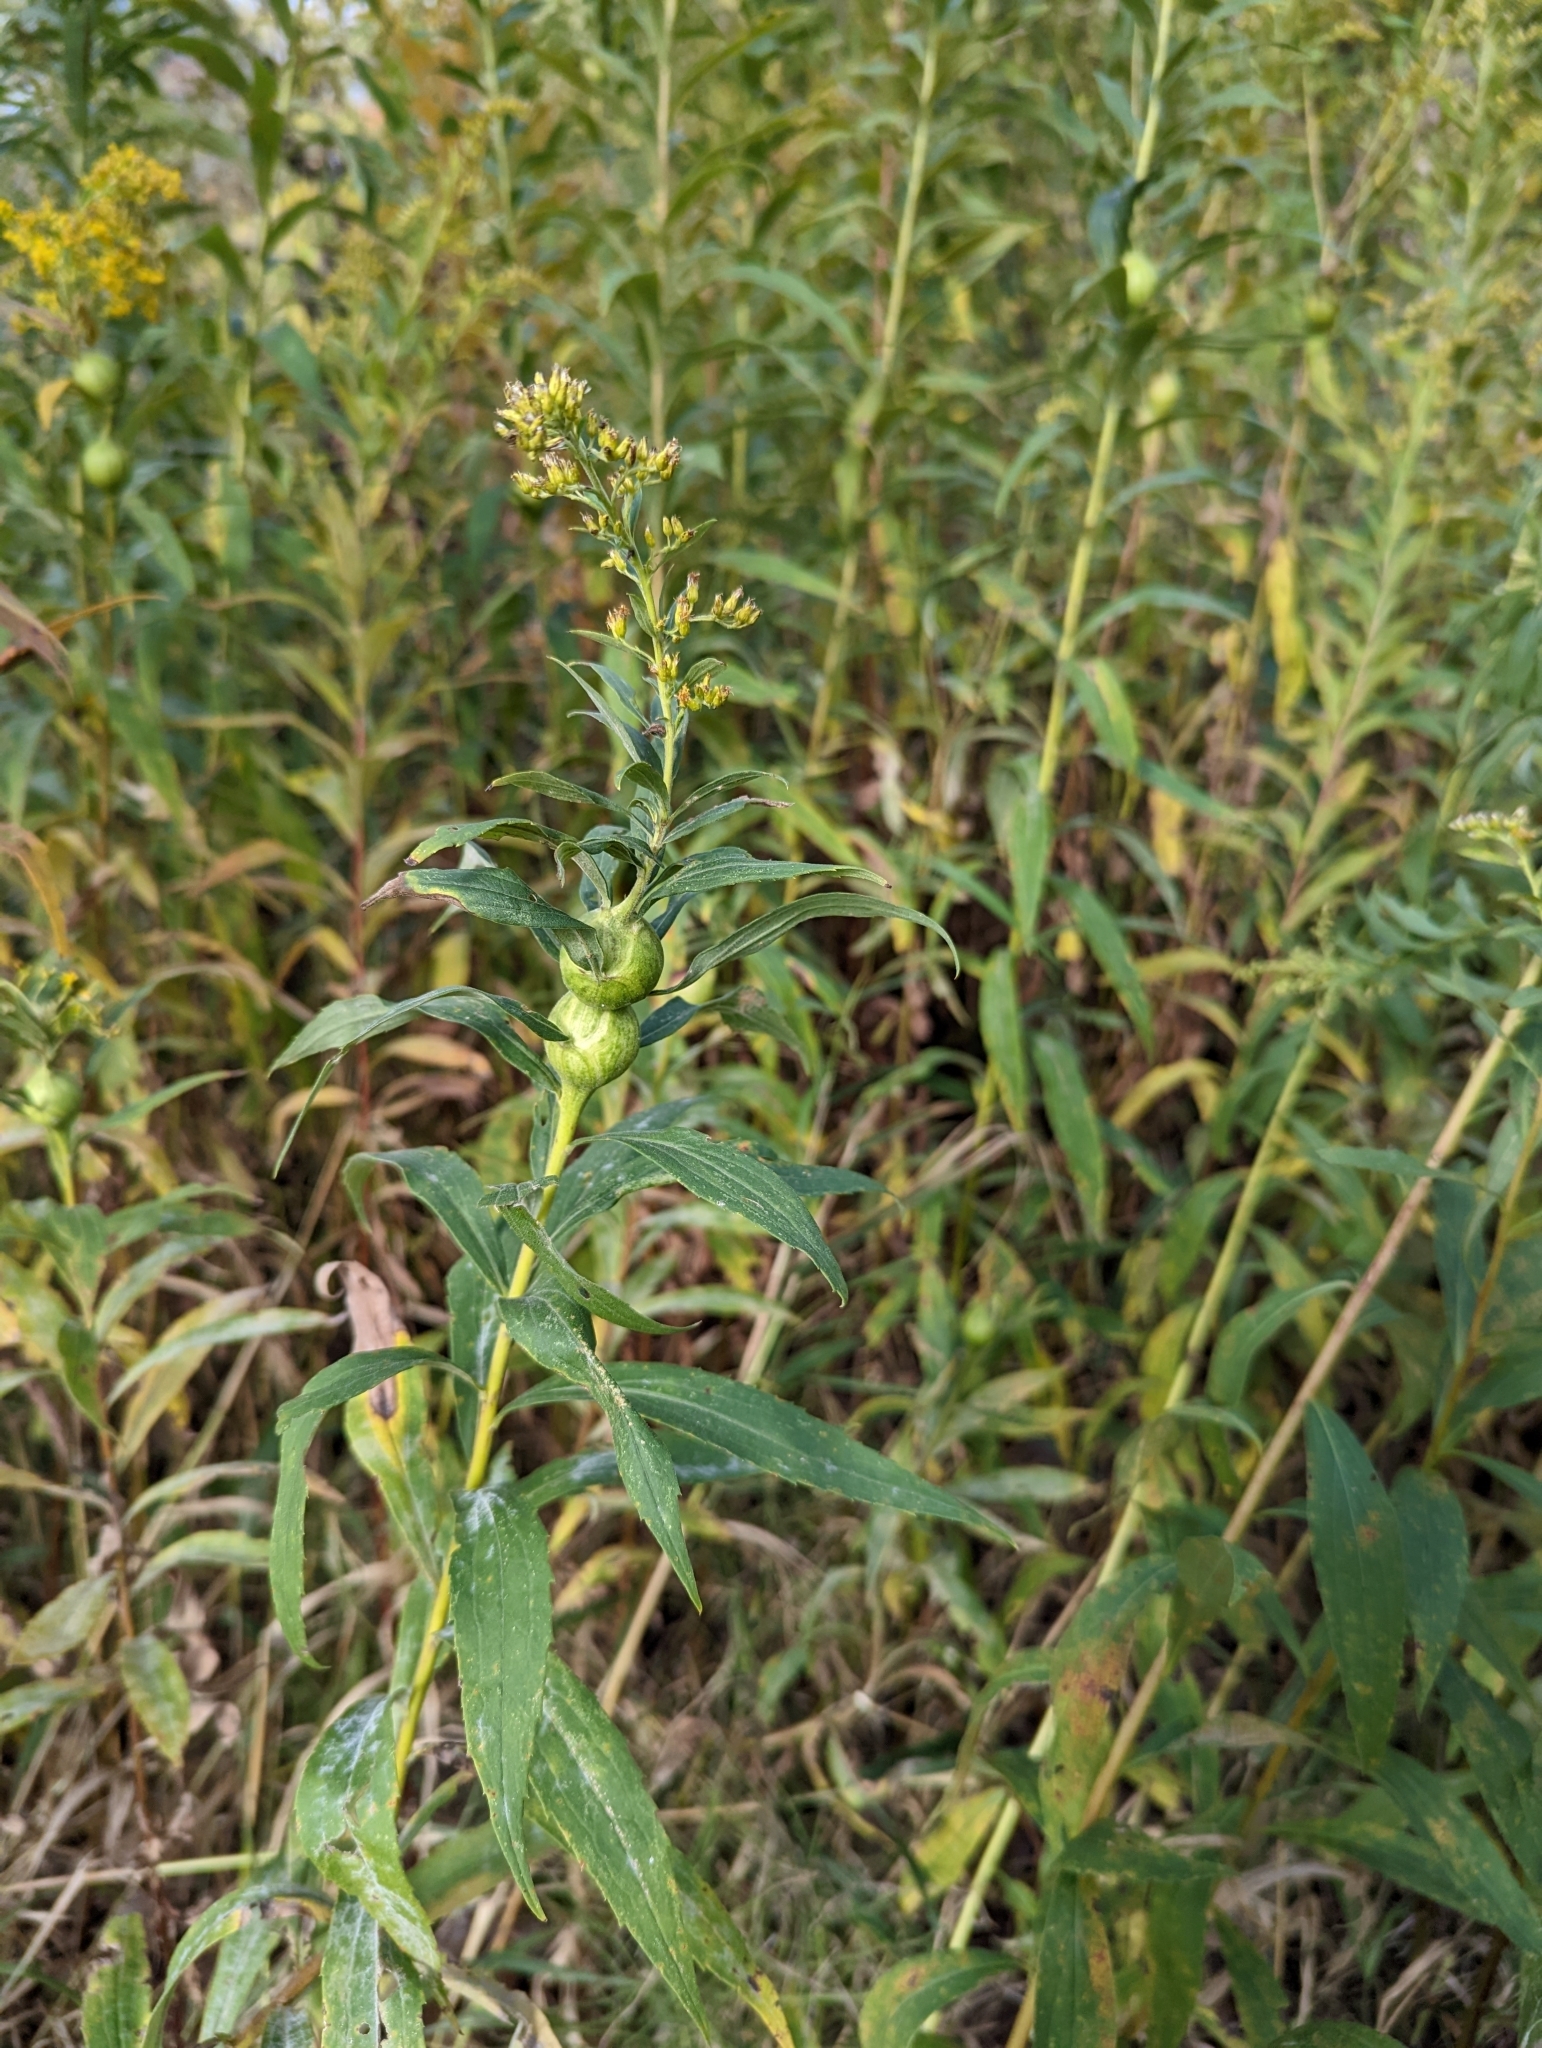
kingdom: Animalia
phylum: Arthropoda
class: Insecta
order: Diptera
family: Tephritidae
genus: Eurosta
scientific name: Eurosta solidaginis
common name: Goldenrod gall fly
